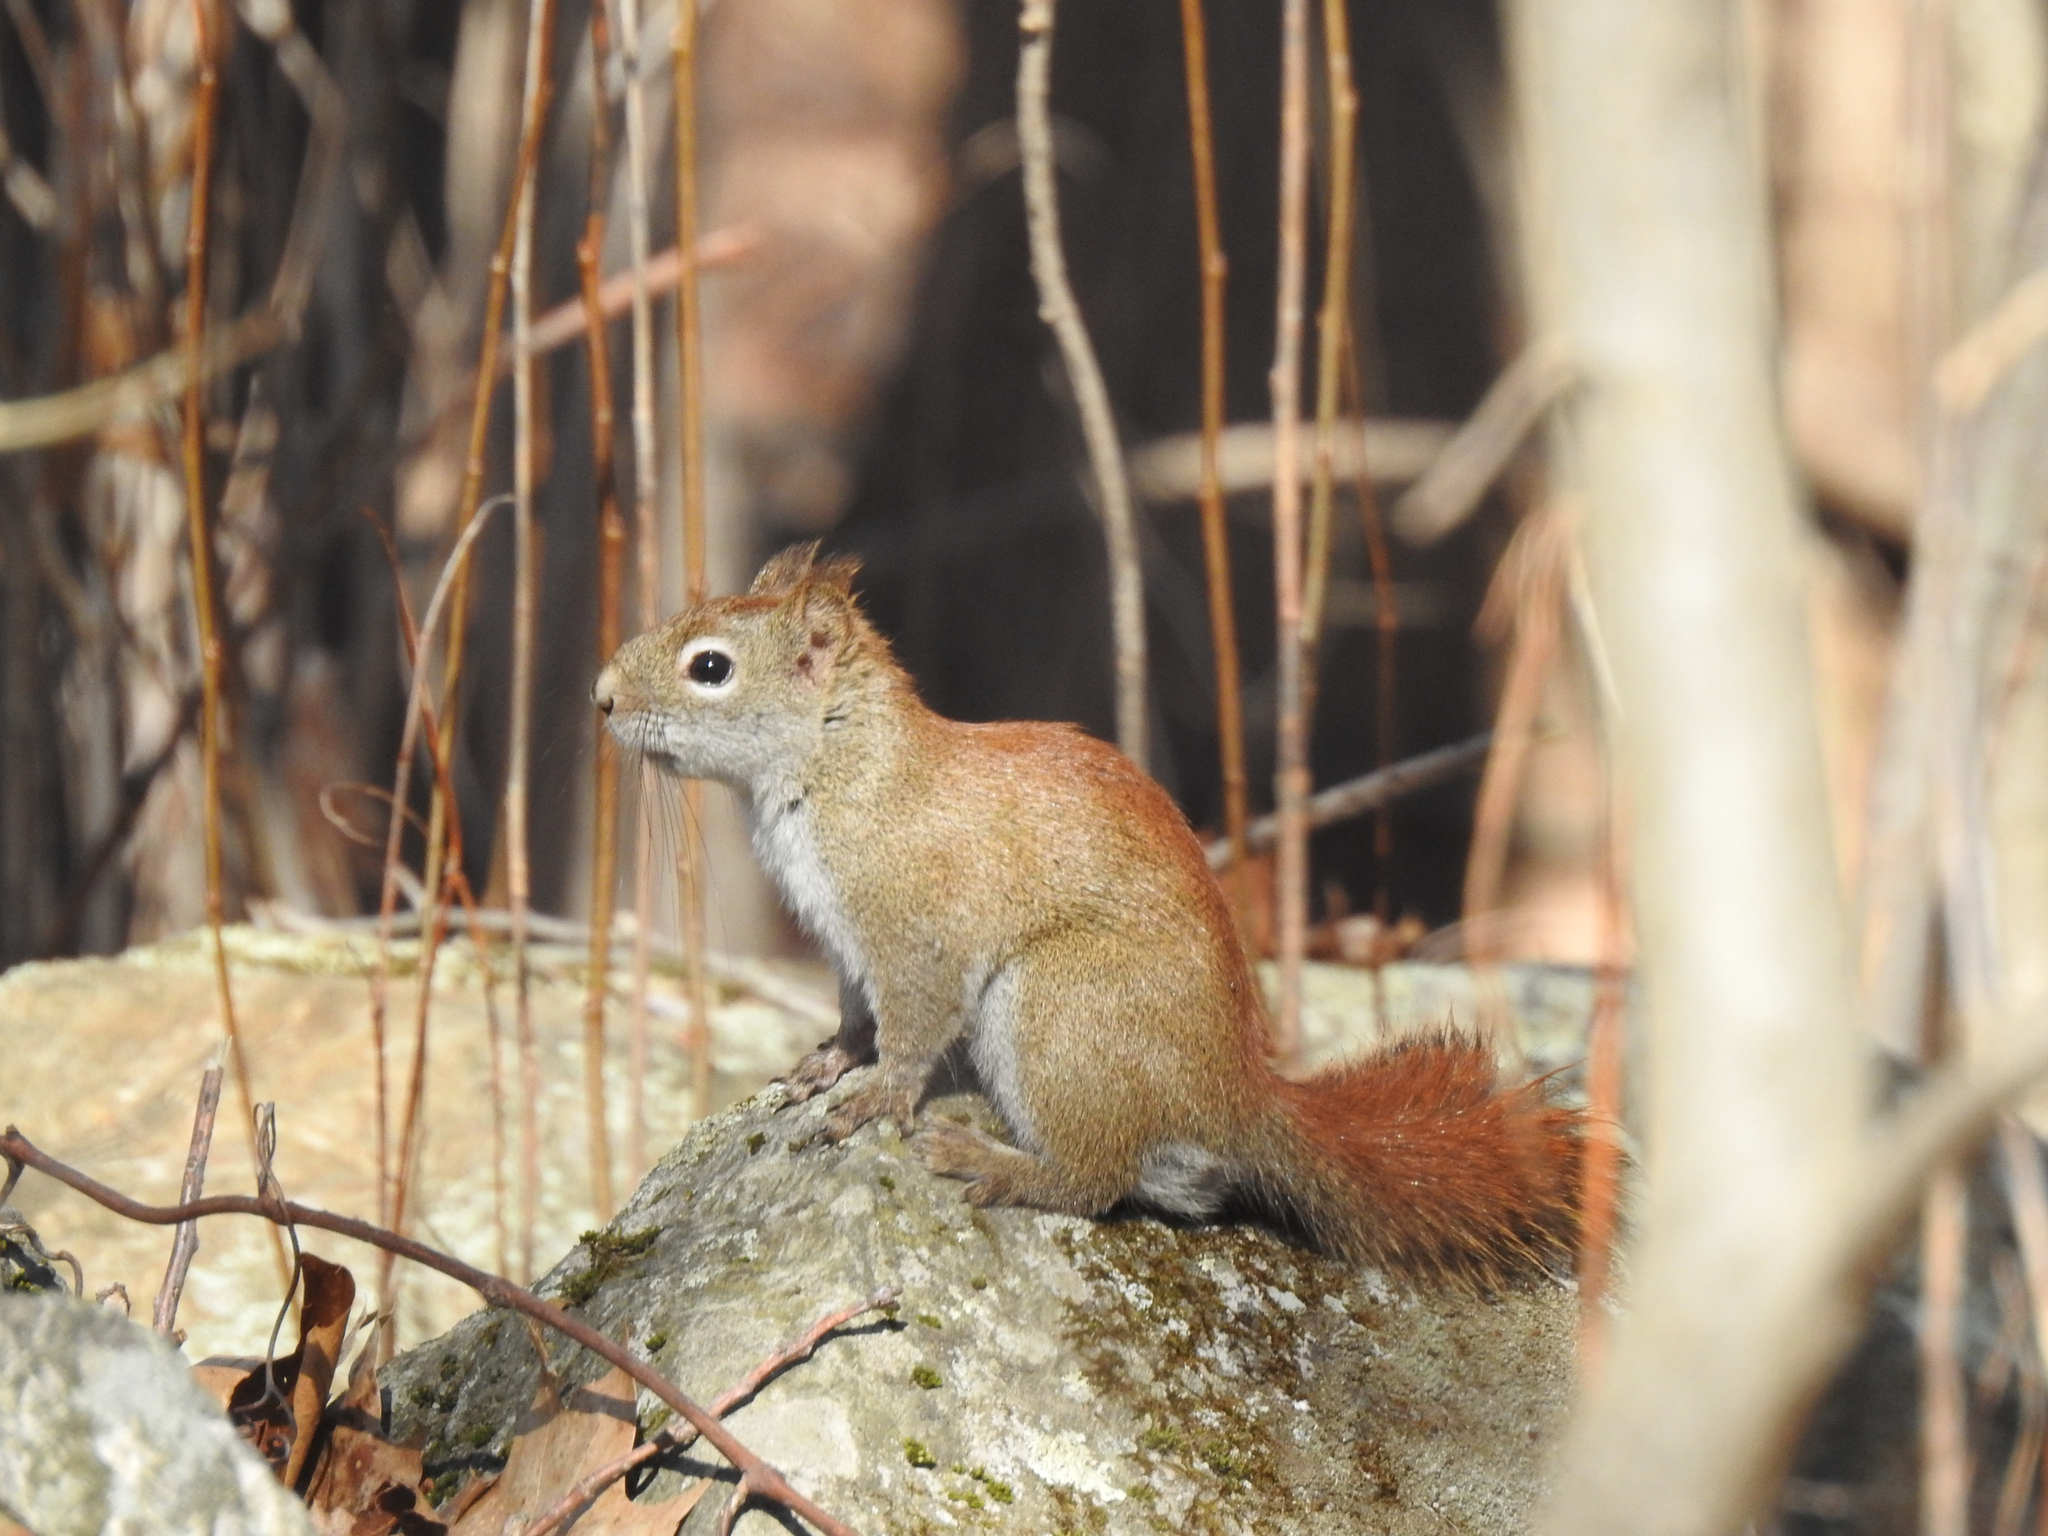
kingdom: Animalia
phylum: Chordata
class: Mammalia
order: Rodentia
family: Sciuridae
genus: Tamiasciurus
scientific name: Tamiasciurus hudsonicus
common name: Red squirrel
